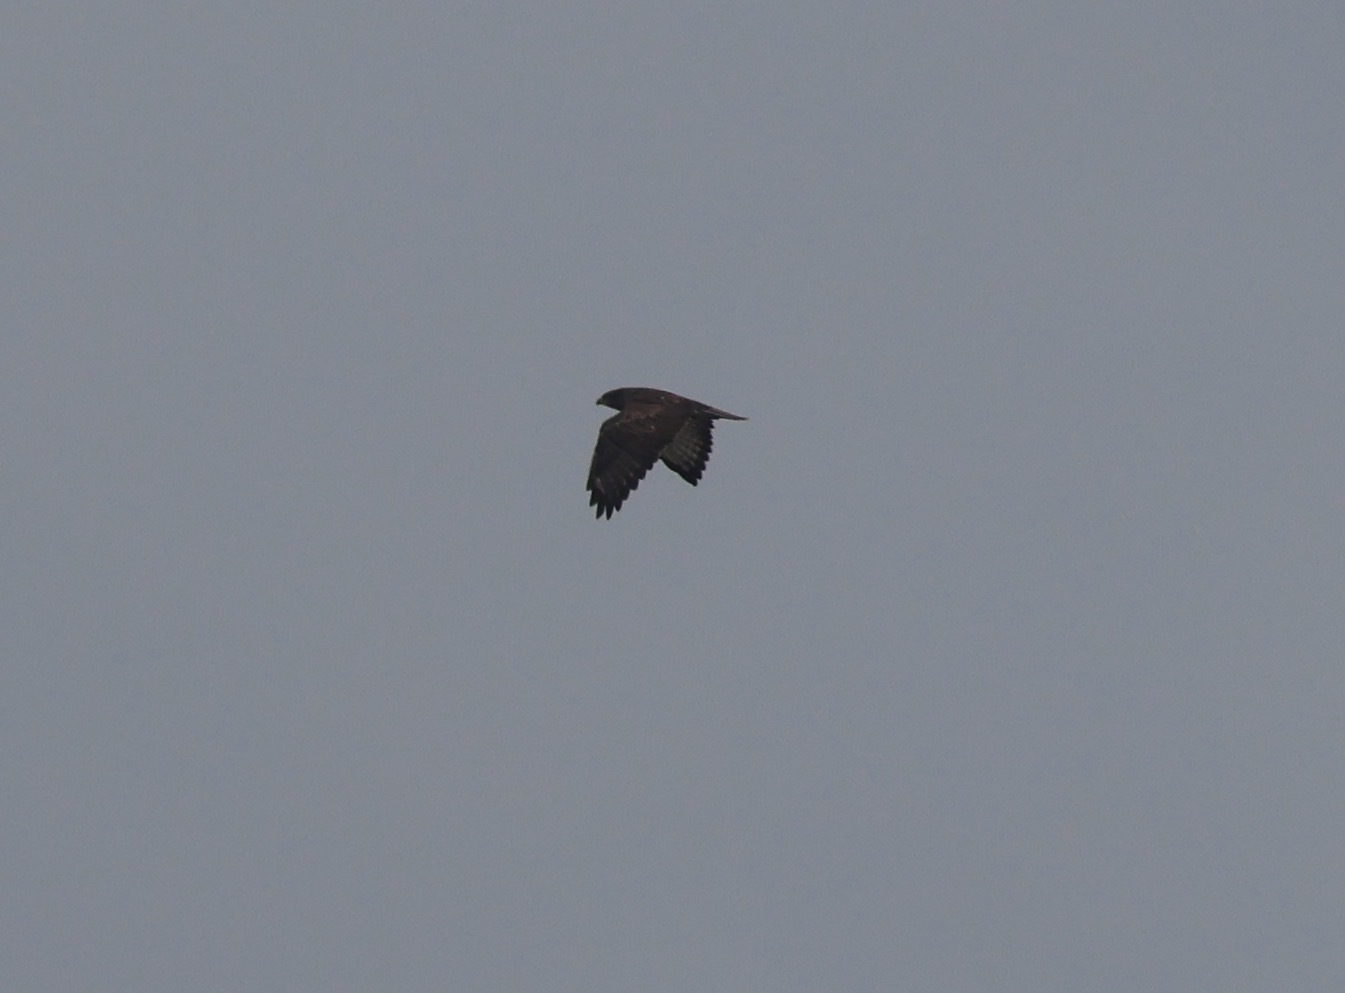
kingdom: Animalia
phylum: Chordata
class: Aves
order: Accipitriformes
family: Accipitridae
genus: Buteo
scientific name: Buteo buteo
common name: Common buzzard
